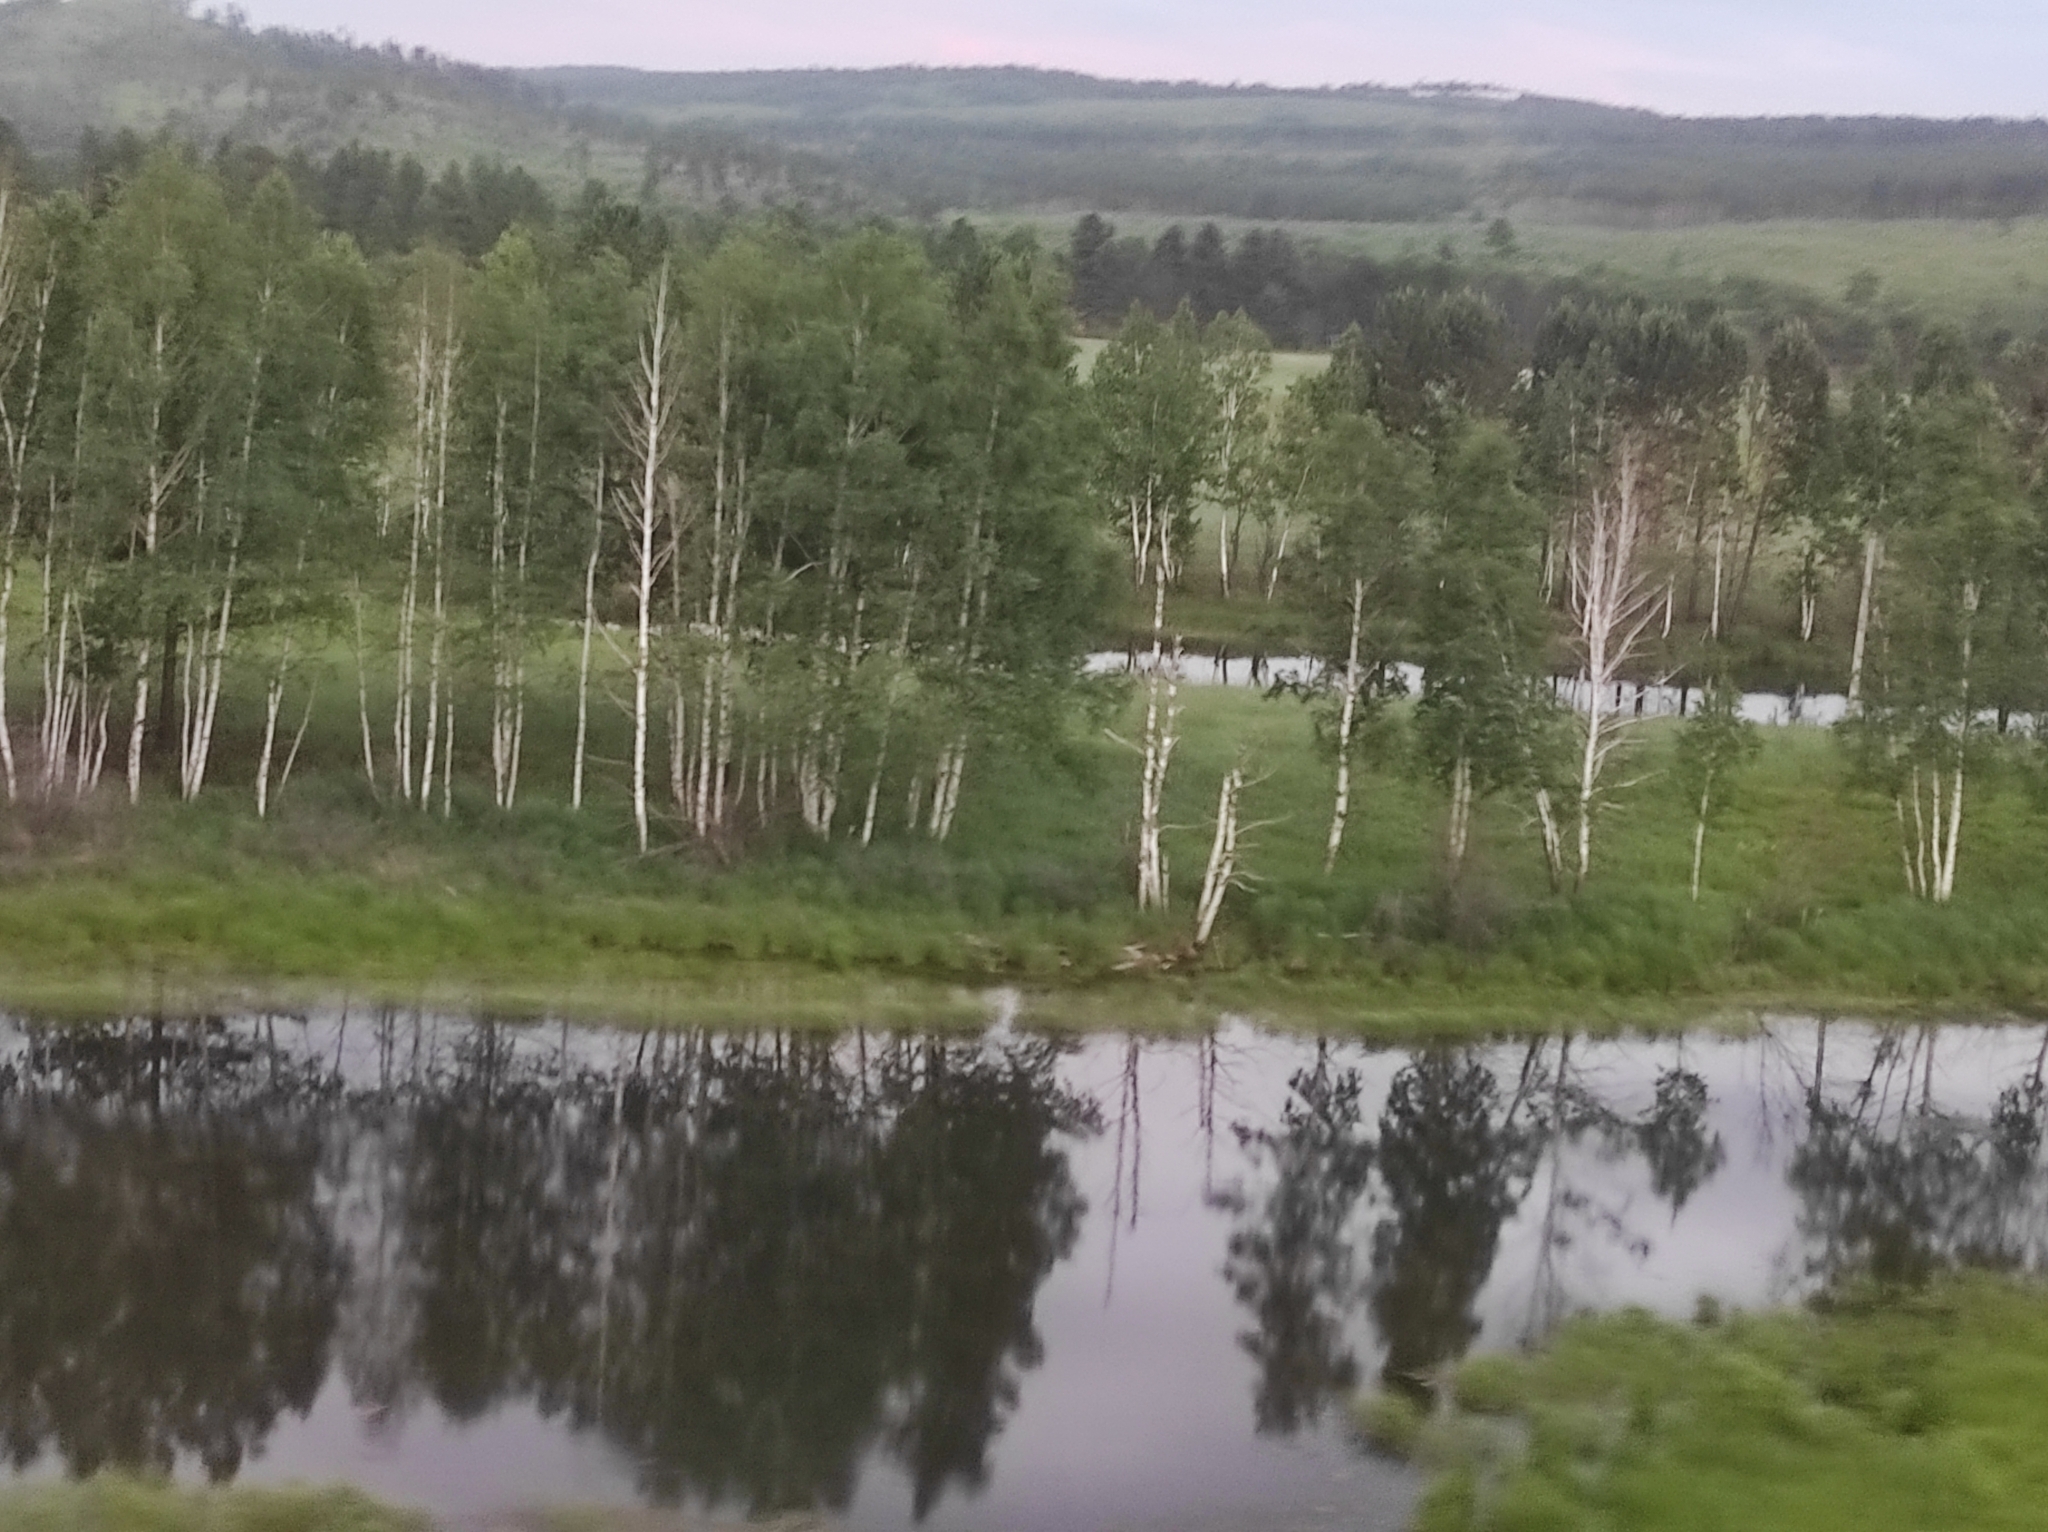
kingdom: Plantae
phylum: Tracheophyta
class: Magnoliopsida
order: Fagales
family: Betulaceae
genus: Betula
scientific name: Betula pendula
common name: Silver birch
